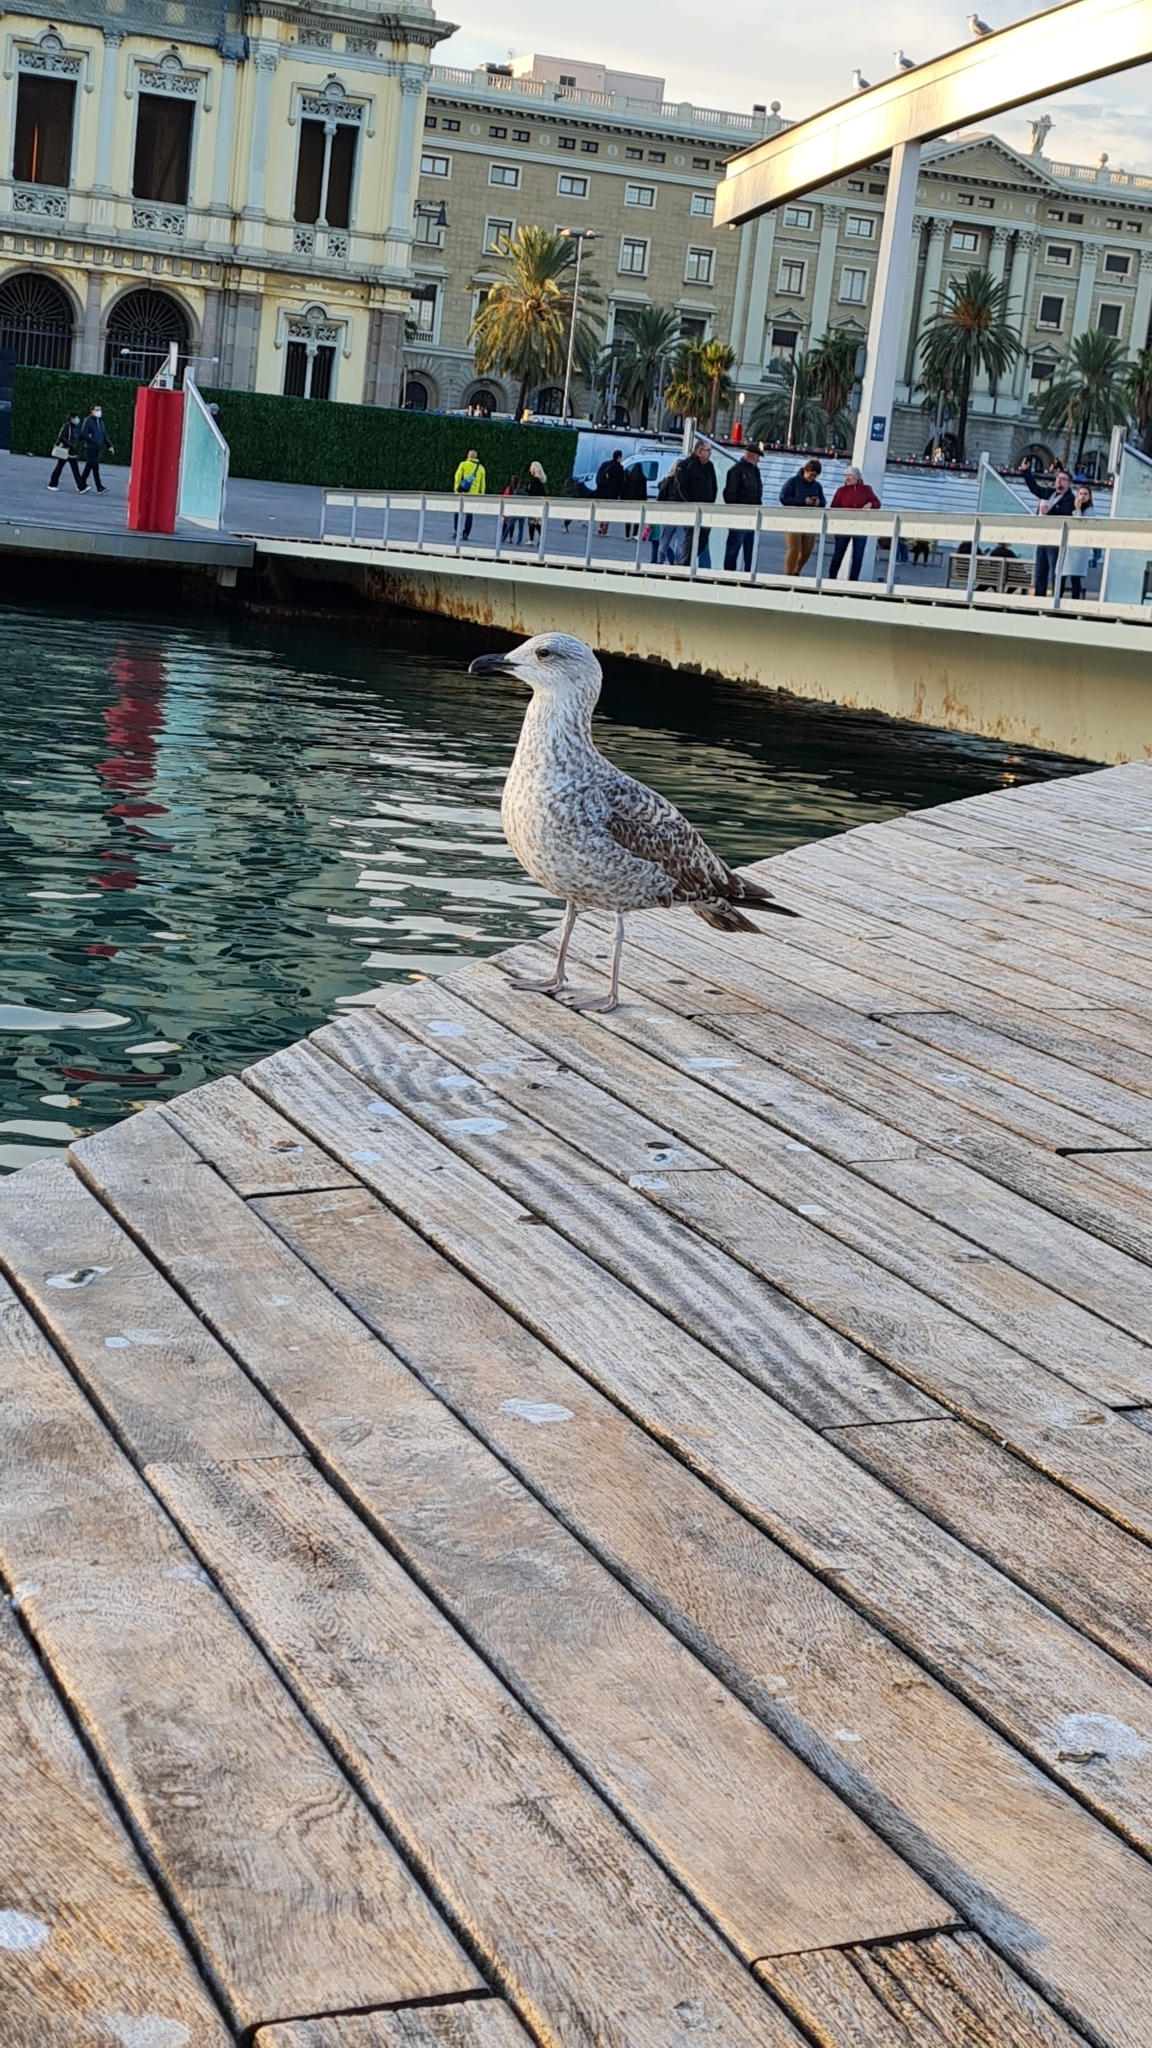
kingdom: Animalia
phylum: Chordata
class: Aves
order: Charadriiformes
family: Laridae
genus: Larus
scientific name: Larus michahellis
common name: Yellow-legged gull
